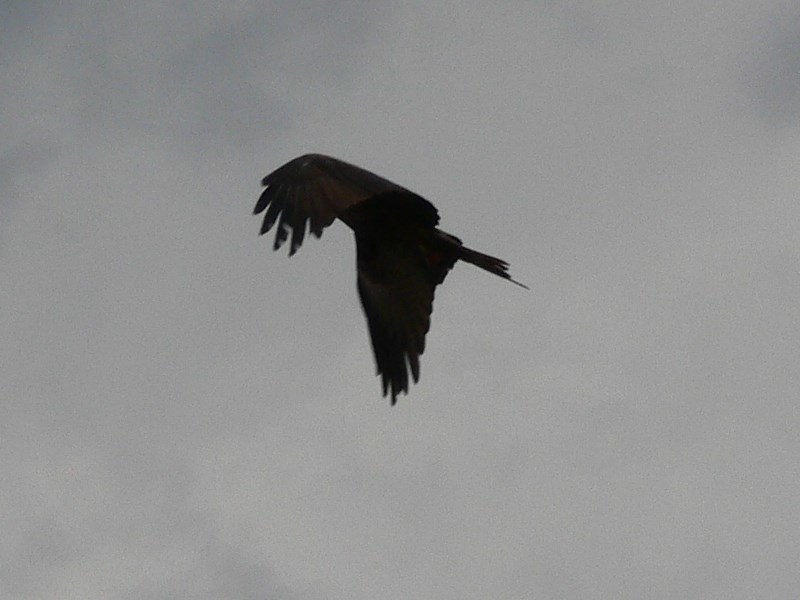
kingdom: Animalia
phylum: Chordata
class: Aves
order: Accipitriformes
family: Accipitridae
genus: Milvus
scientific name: Milvus migrans
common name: Black kite
